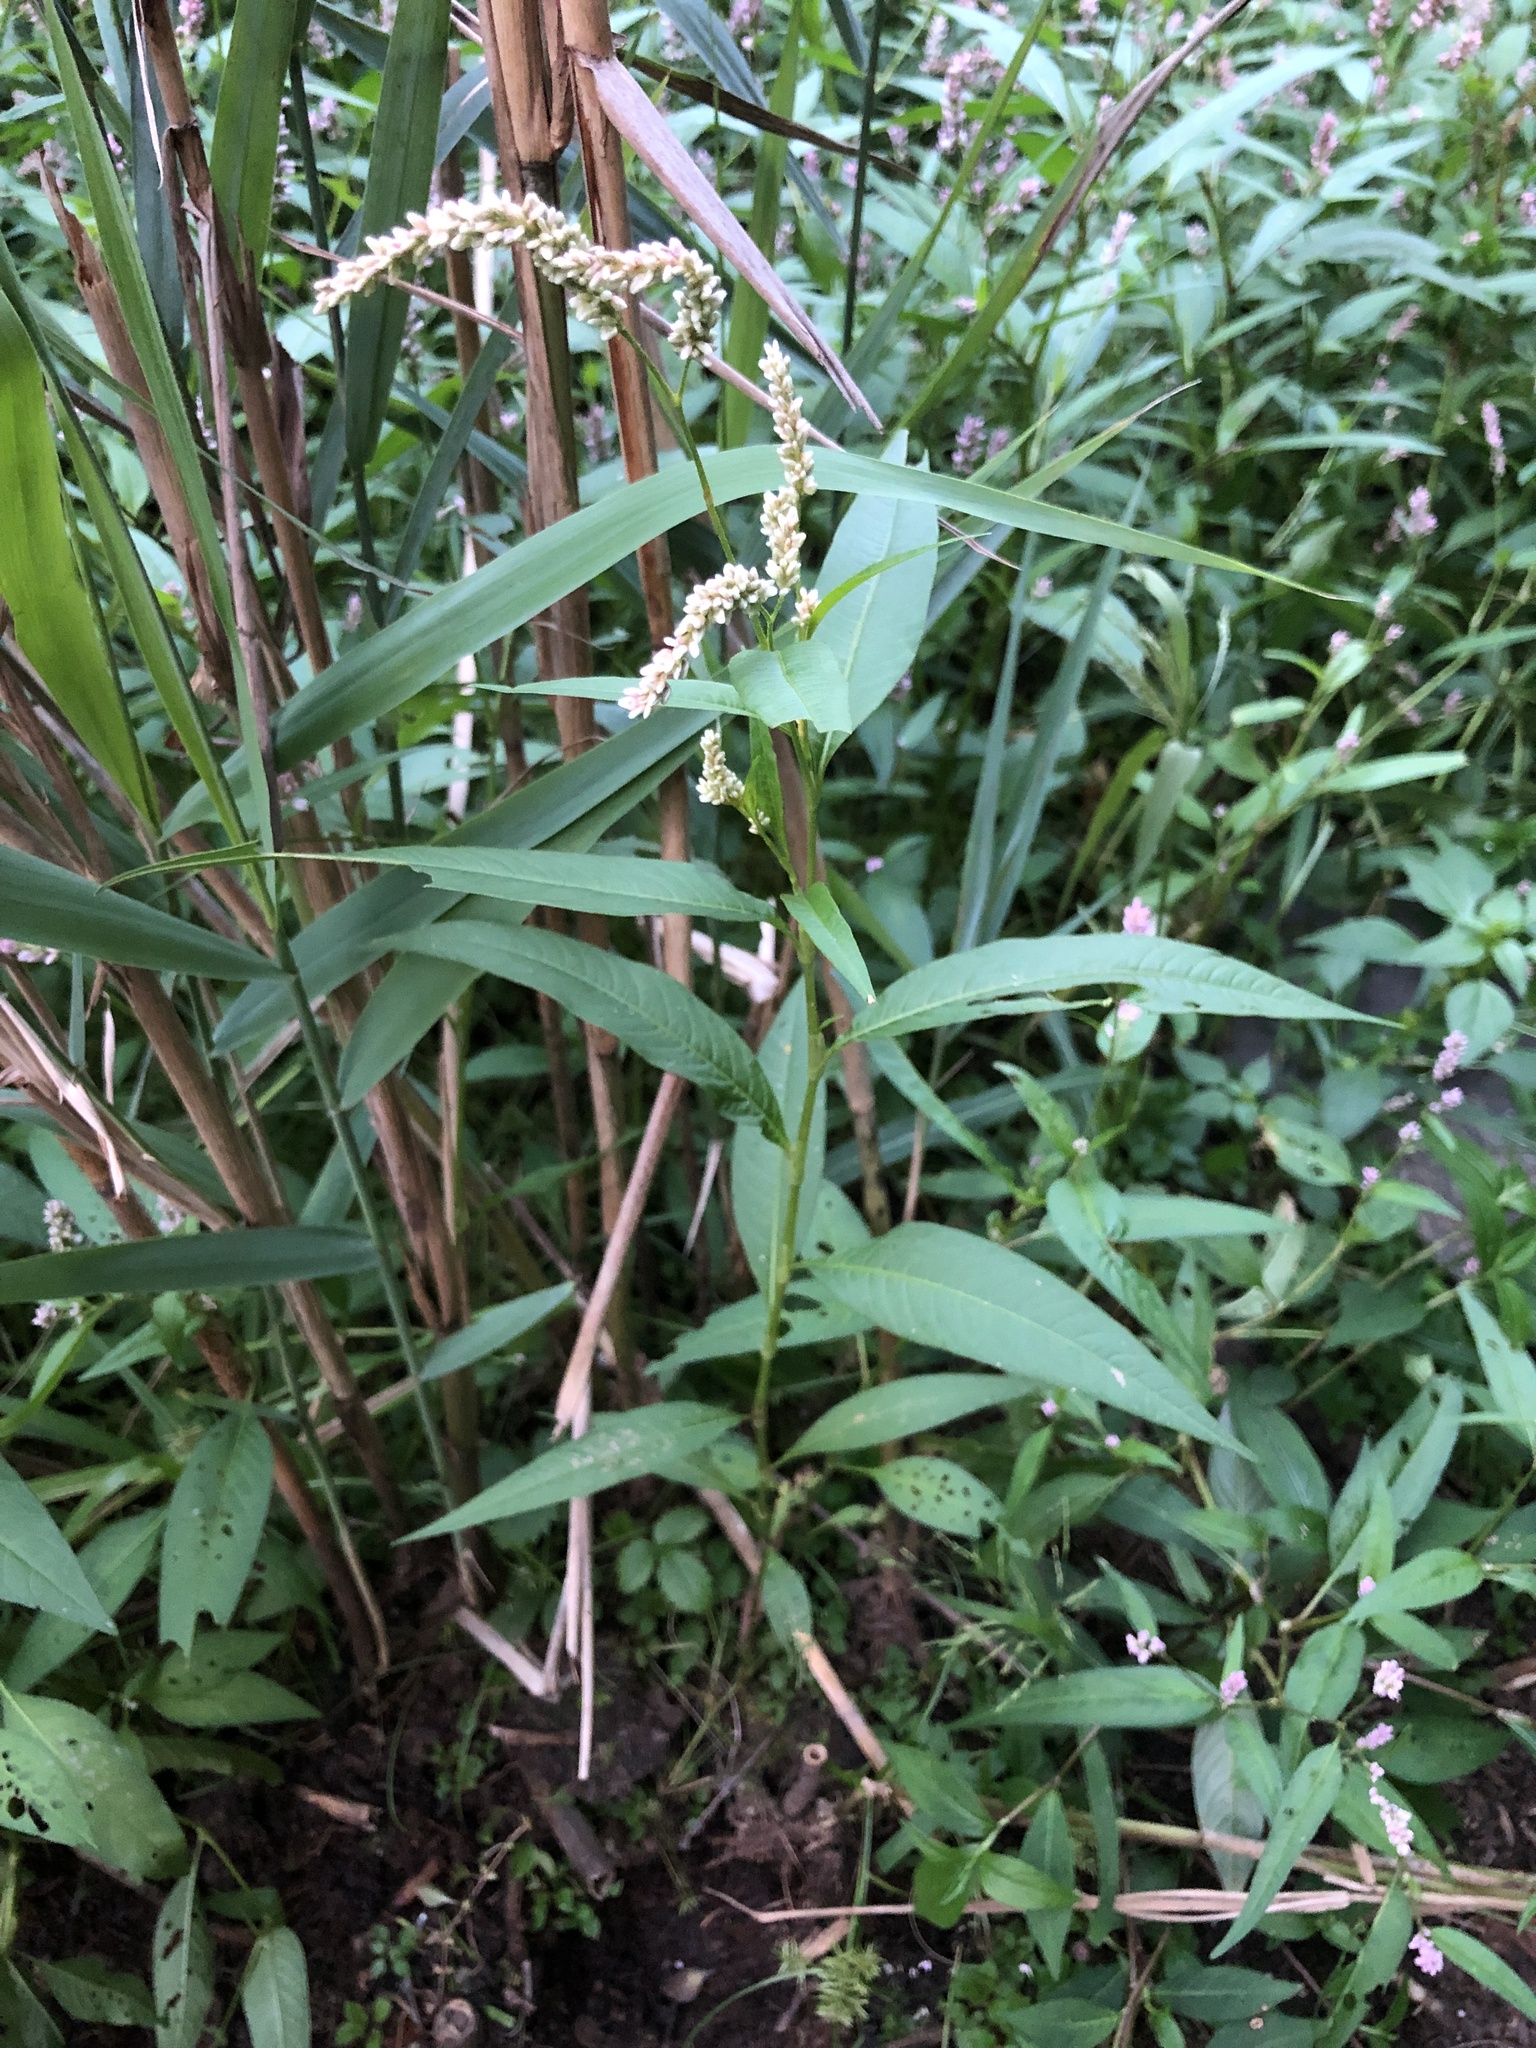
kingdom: Plantae
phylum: Tracheophyta
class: Magnoliopsida
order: Caryophyllales
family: Polygonaceae
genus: Persicaria
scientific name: Persicaria pensylvanica
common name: Pinkweed
